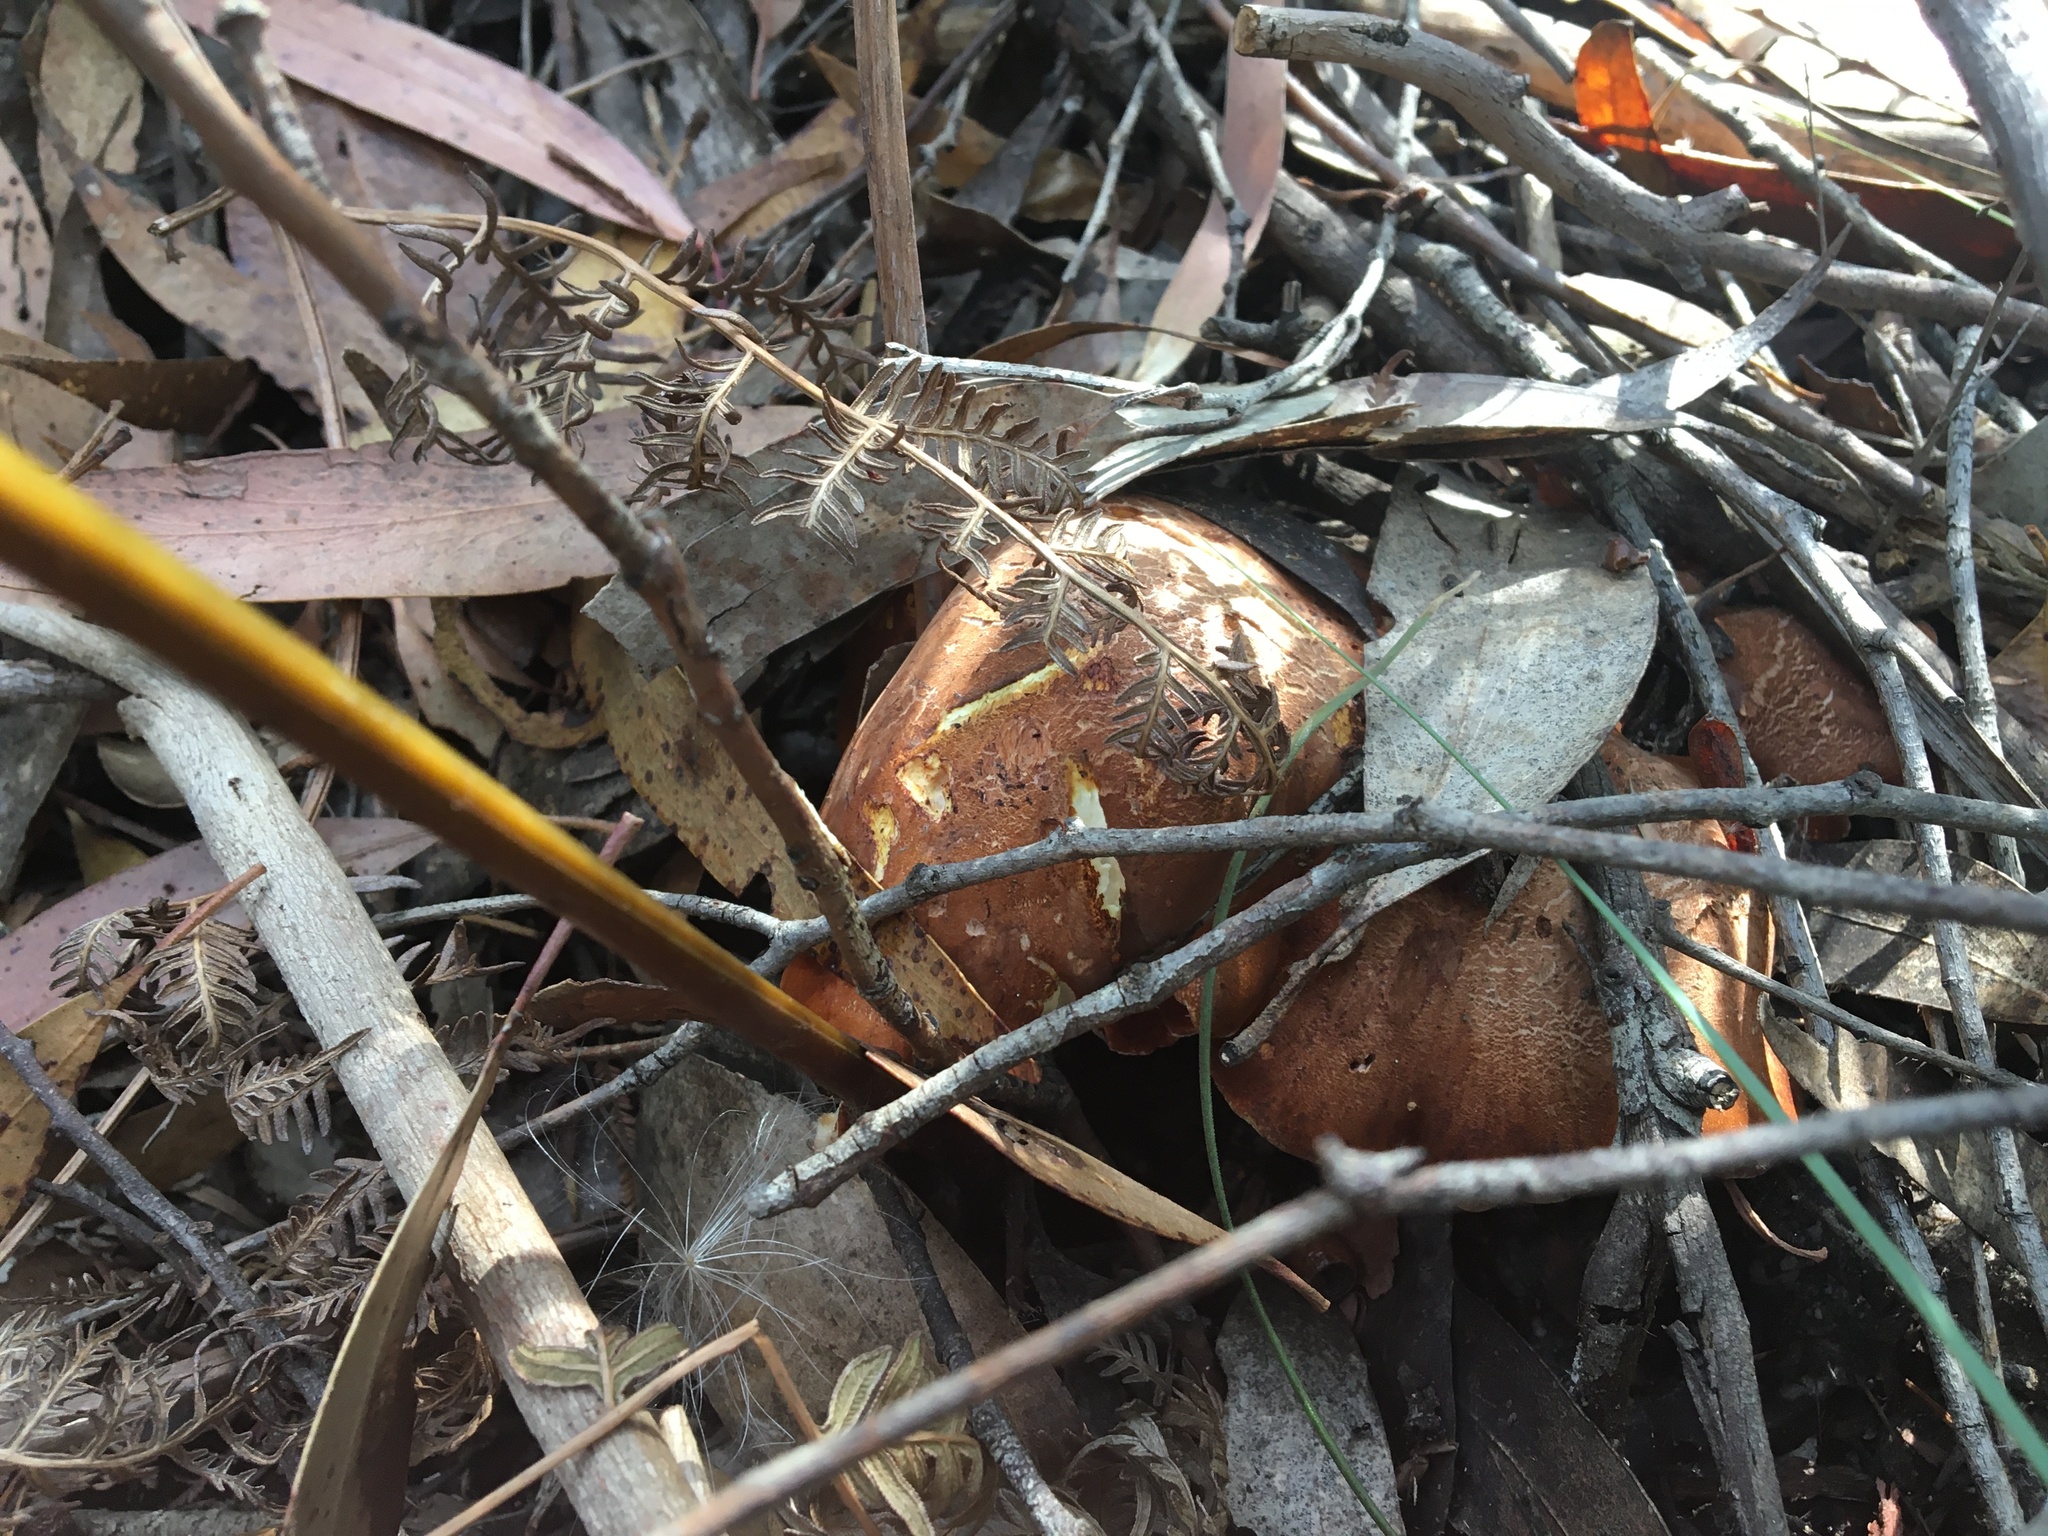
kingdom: Fungi
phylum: Basidiomycota
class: Agaricomycetes
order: Polyporales
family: Fomitopsidaceae
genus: Fomitopsis
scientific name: Fomitopsis
